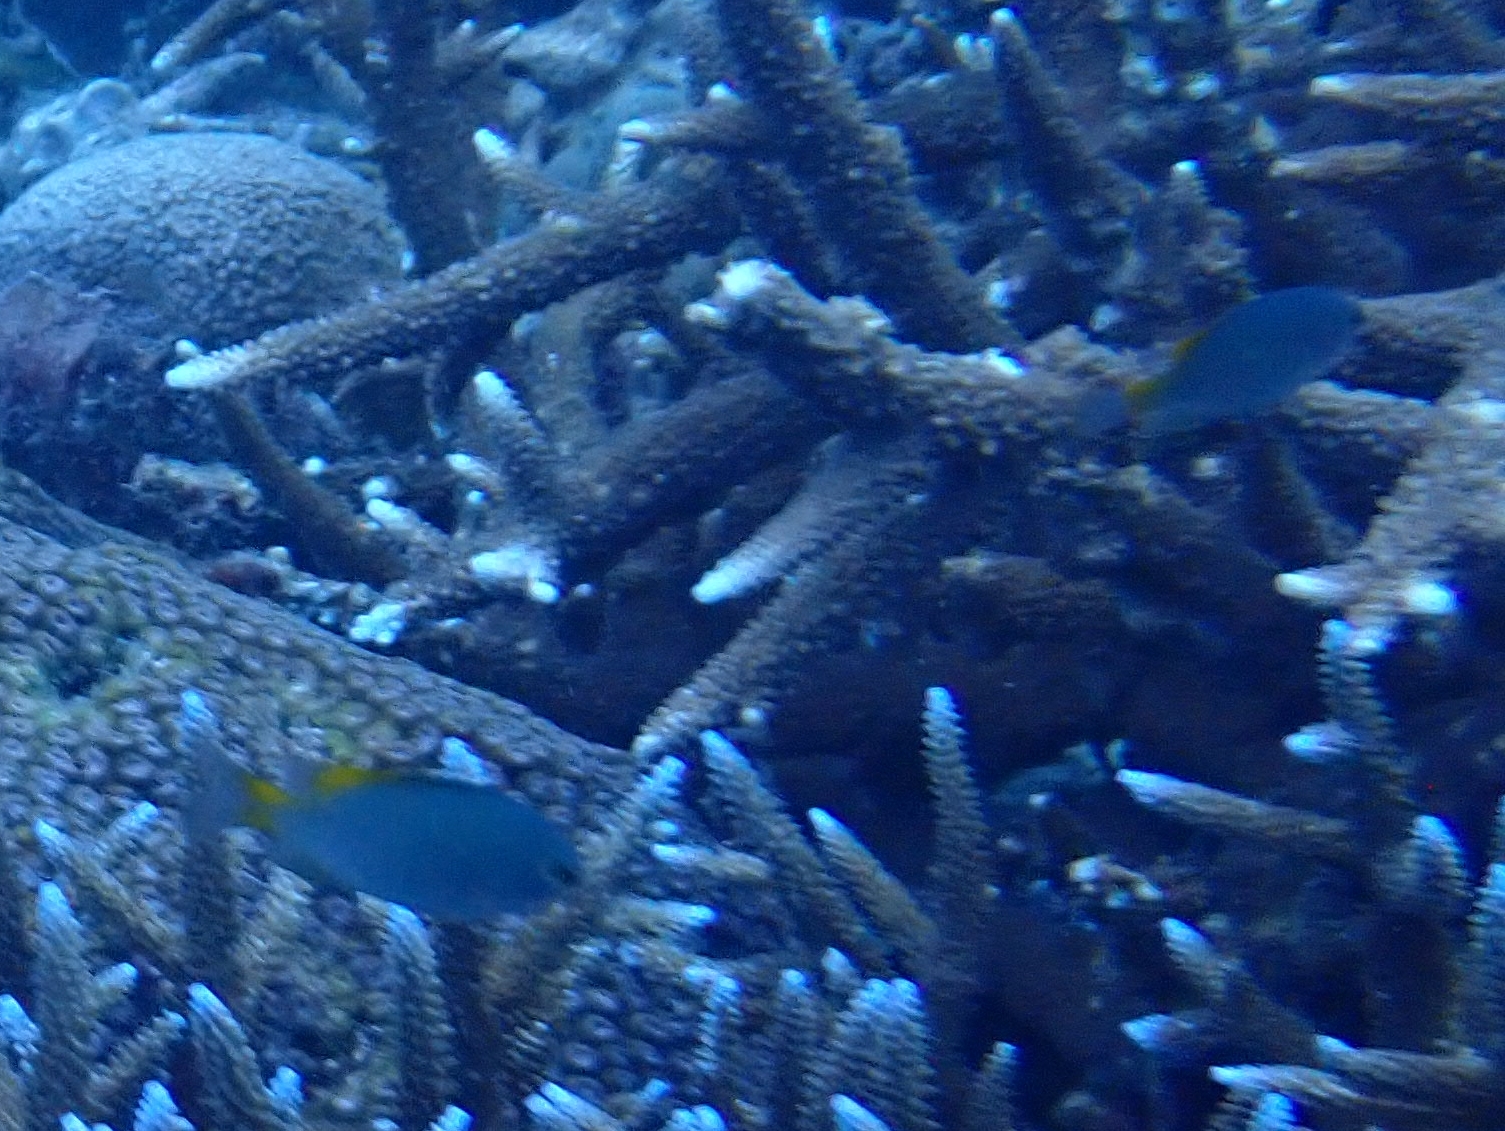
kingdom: Animalia
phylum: Chordata
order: Perciformes
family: Pomacentridae
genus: Pomacentrus
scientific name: Pomacentrus lepidogenys
